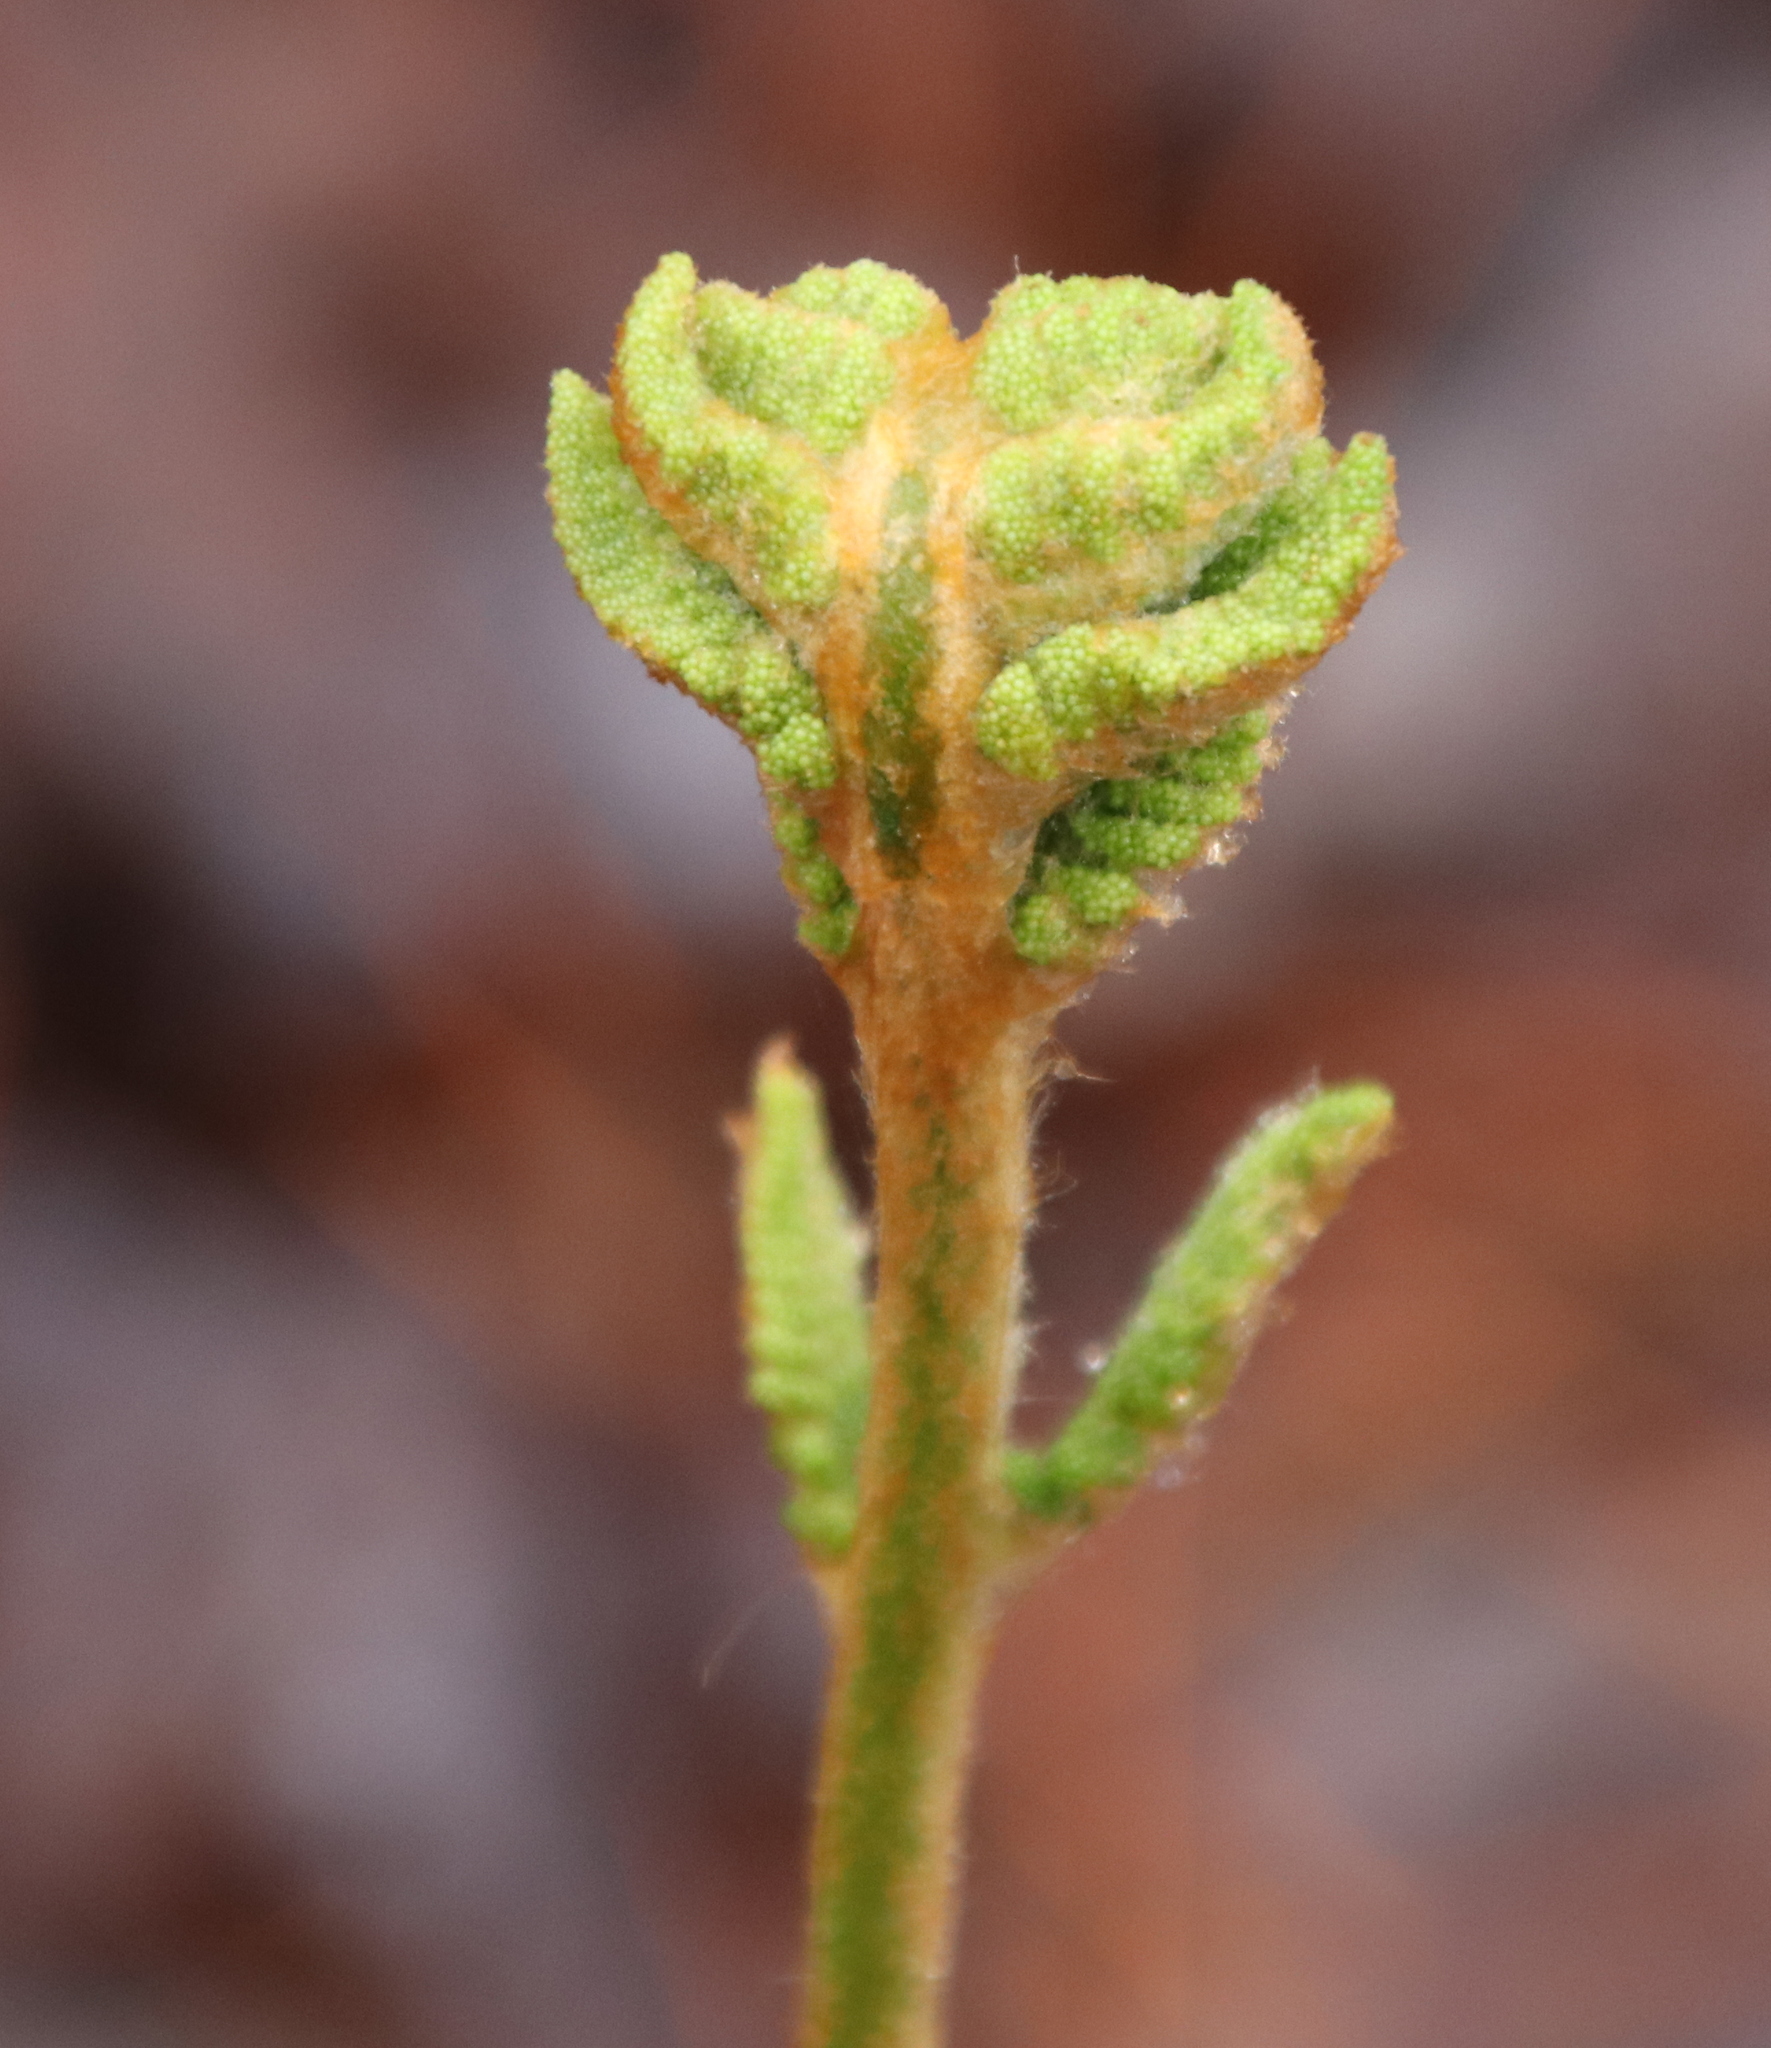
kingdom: Plantae
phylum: Tracheophyta
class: Polypodiopsida
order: Osmundales
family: Osmundaceae
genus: Osmundastrum
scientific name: Osmundastrum cinnamomeum
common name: Cinnamon fern
